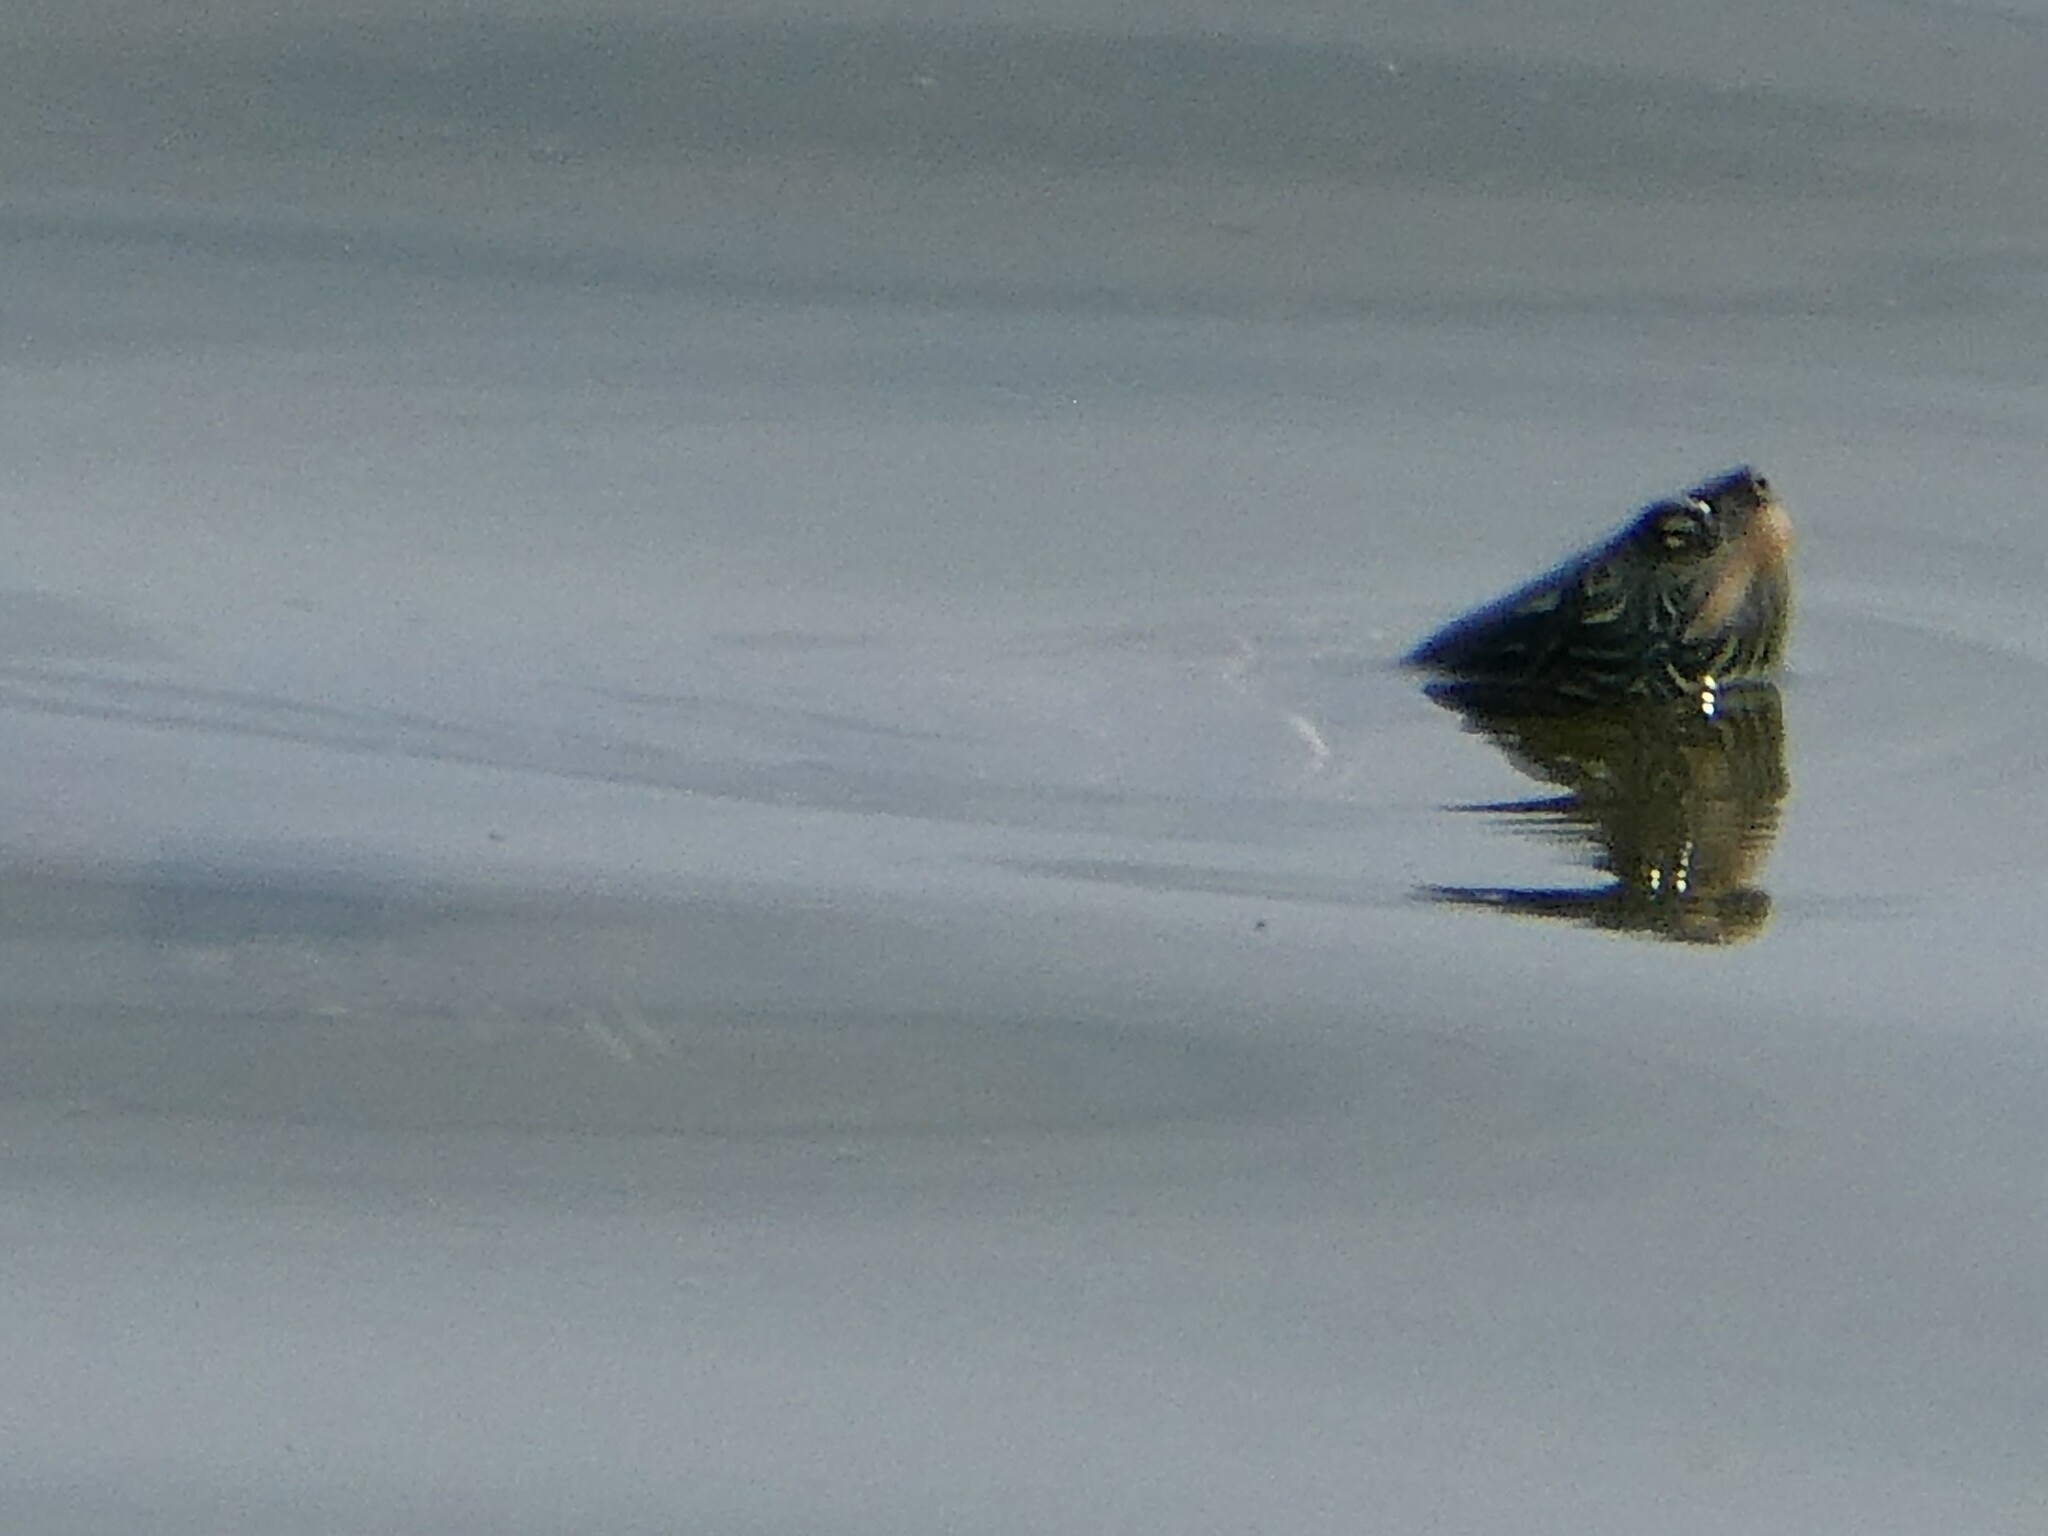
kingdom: Animalia
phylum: Chordata
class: Testudines
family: Emydidae
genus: Graptemys
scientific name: Graptemys geographica
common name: Common map turtle
